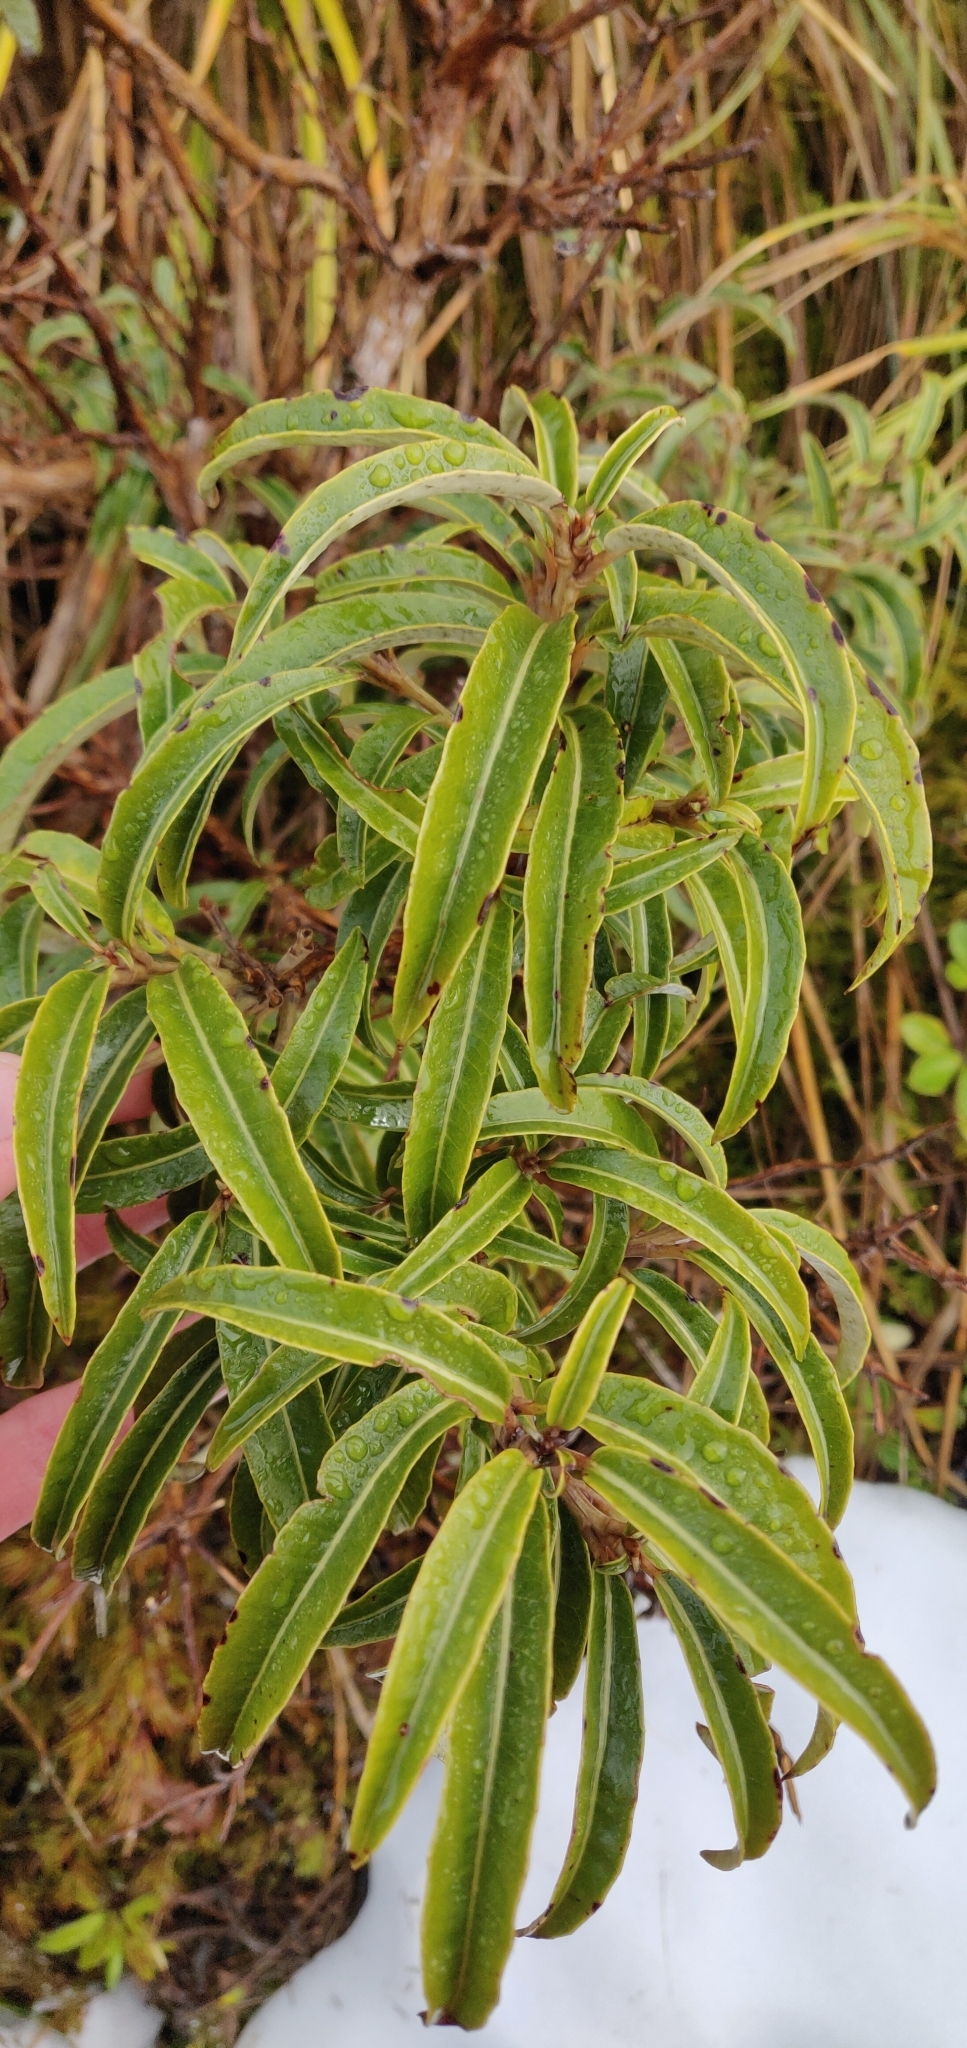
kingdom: Plantae
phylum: Tracheophyta
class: Magnoliopsida
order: Malpighiales
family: Violaceae
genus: Melicytus
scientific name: Melicytus lanceolatus
